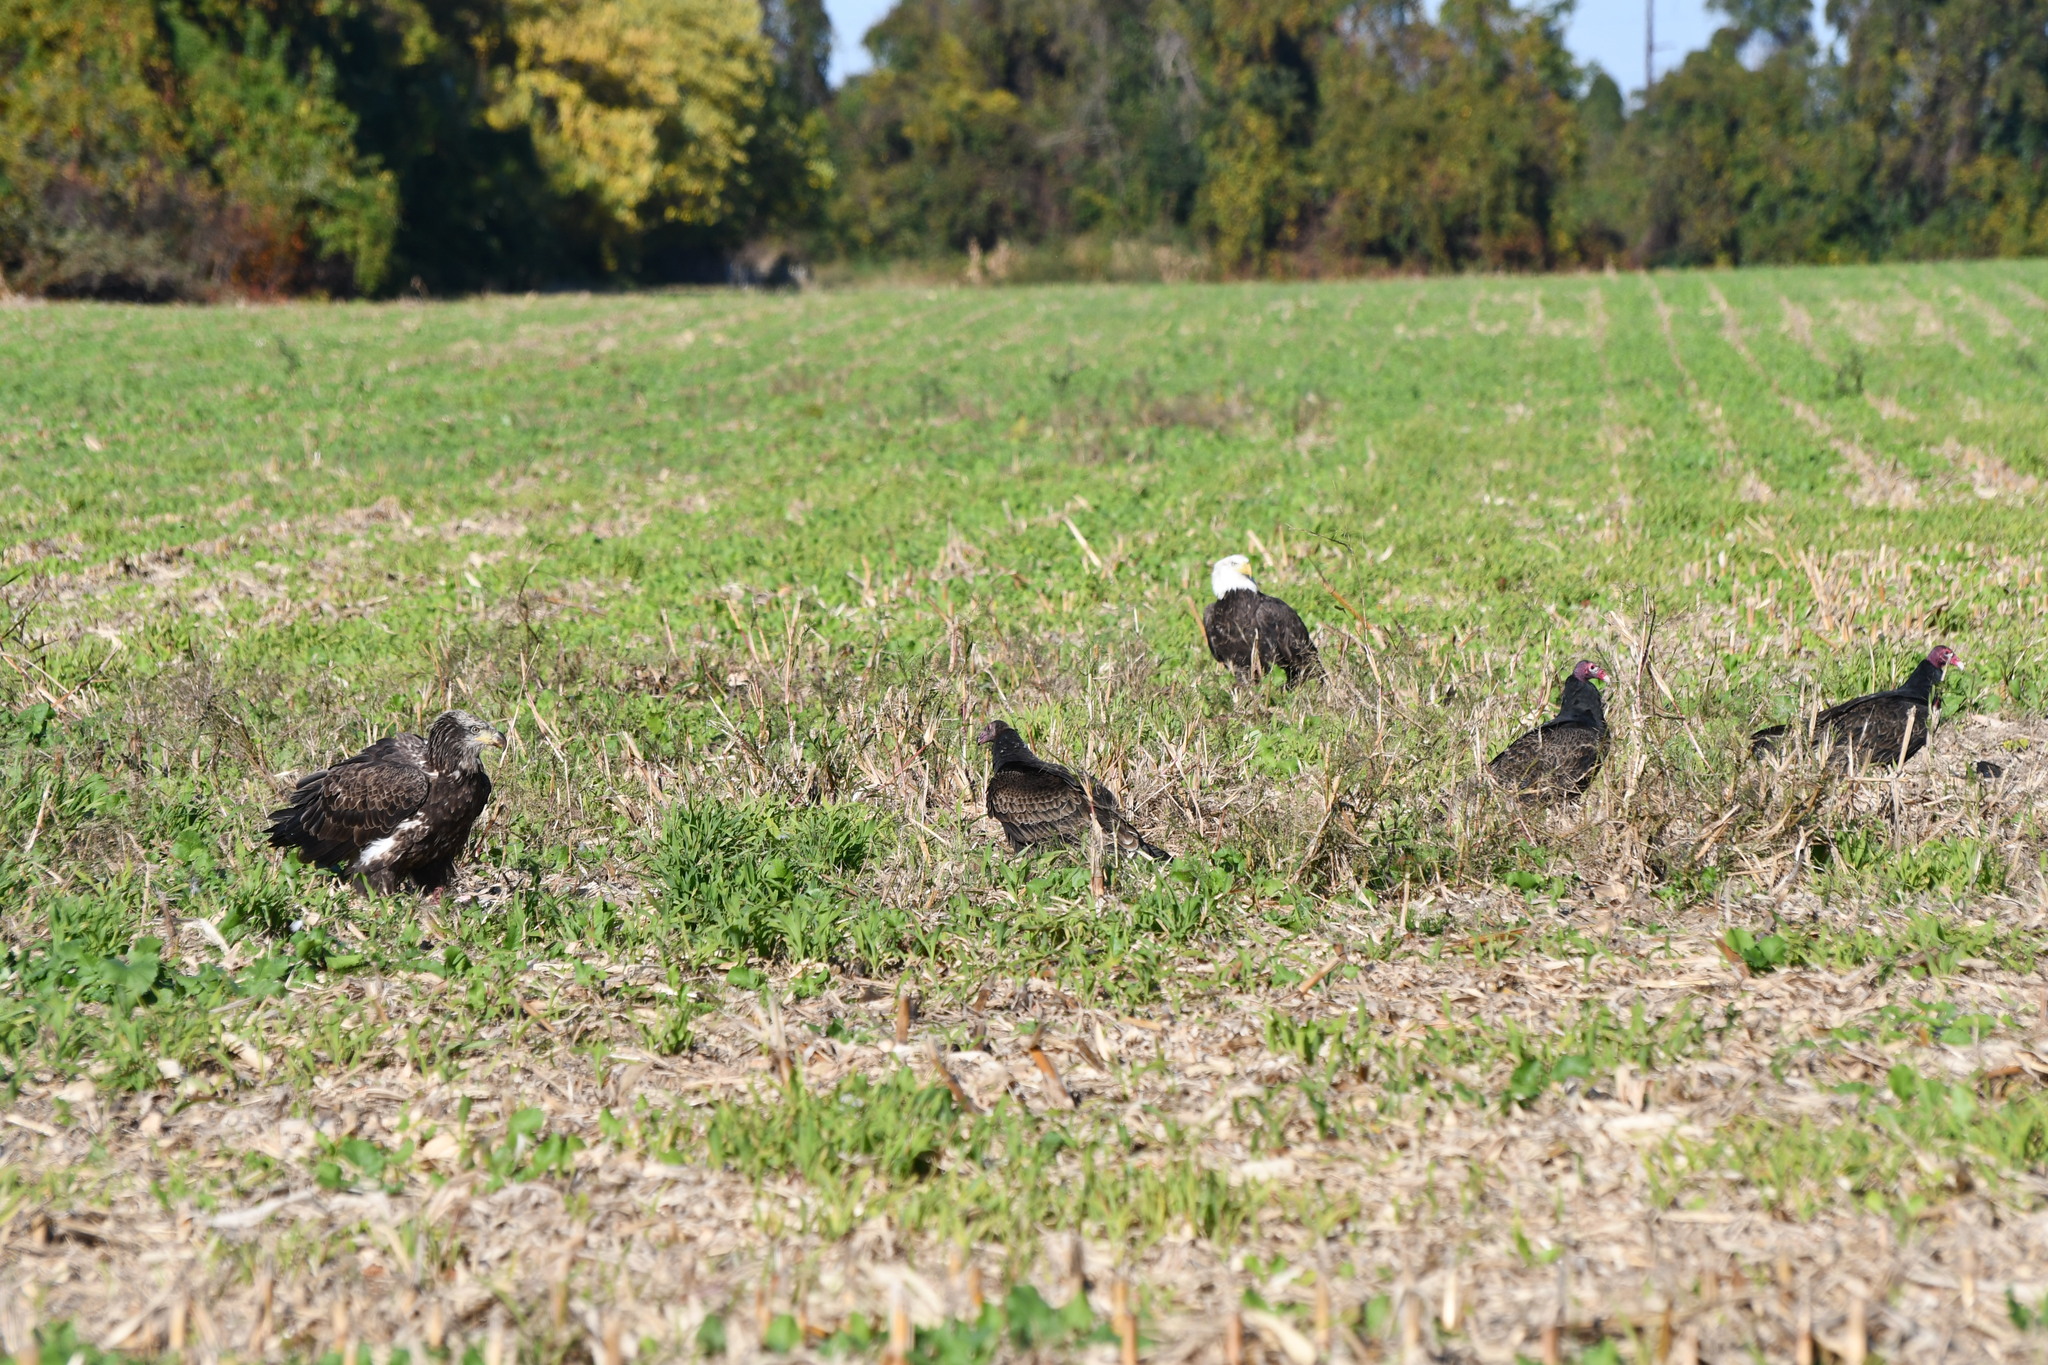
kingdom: Animalia
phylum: Chordata
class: Aves
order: Accipitriformes
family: Accipitridae
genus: Haliaeetus
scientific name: Haliaeetus leucocephalus
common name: Bald eagle
